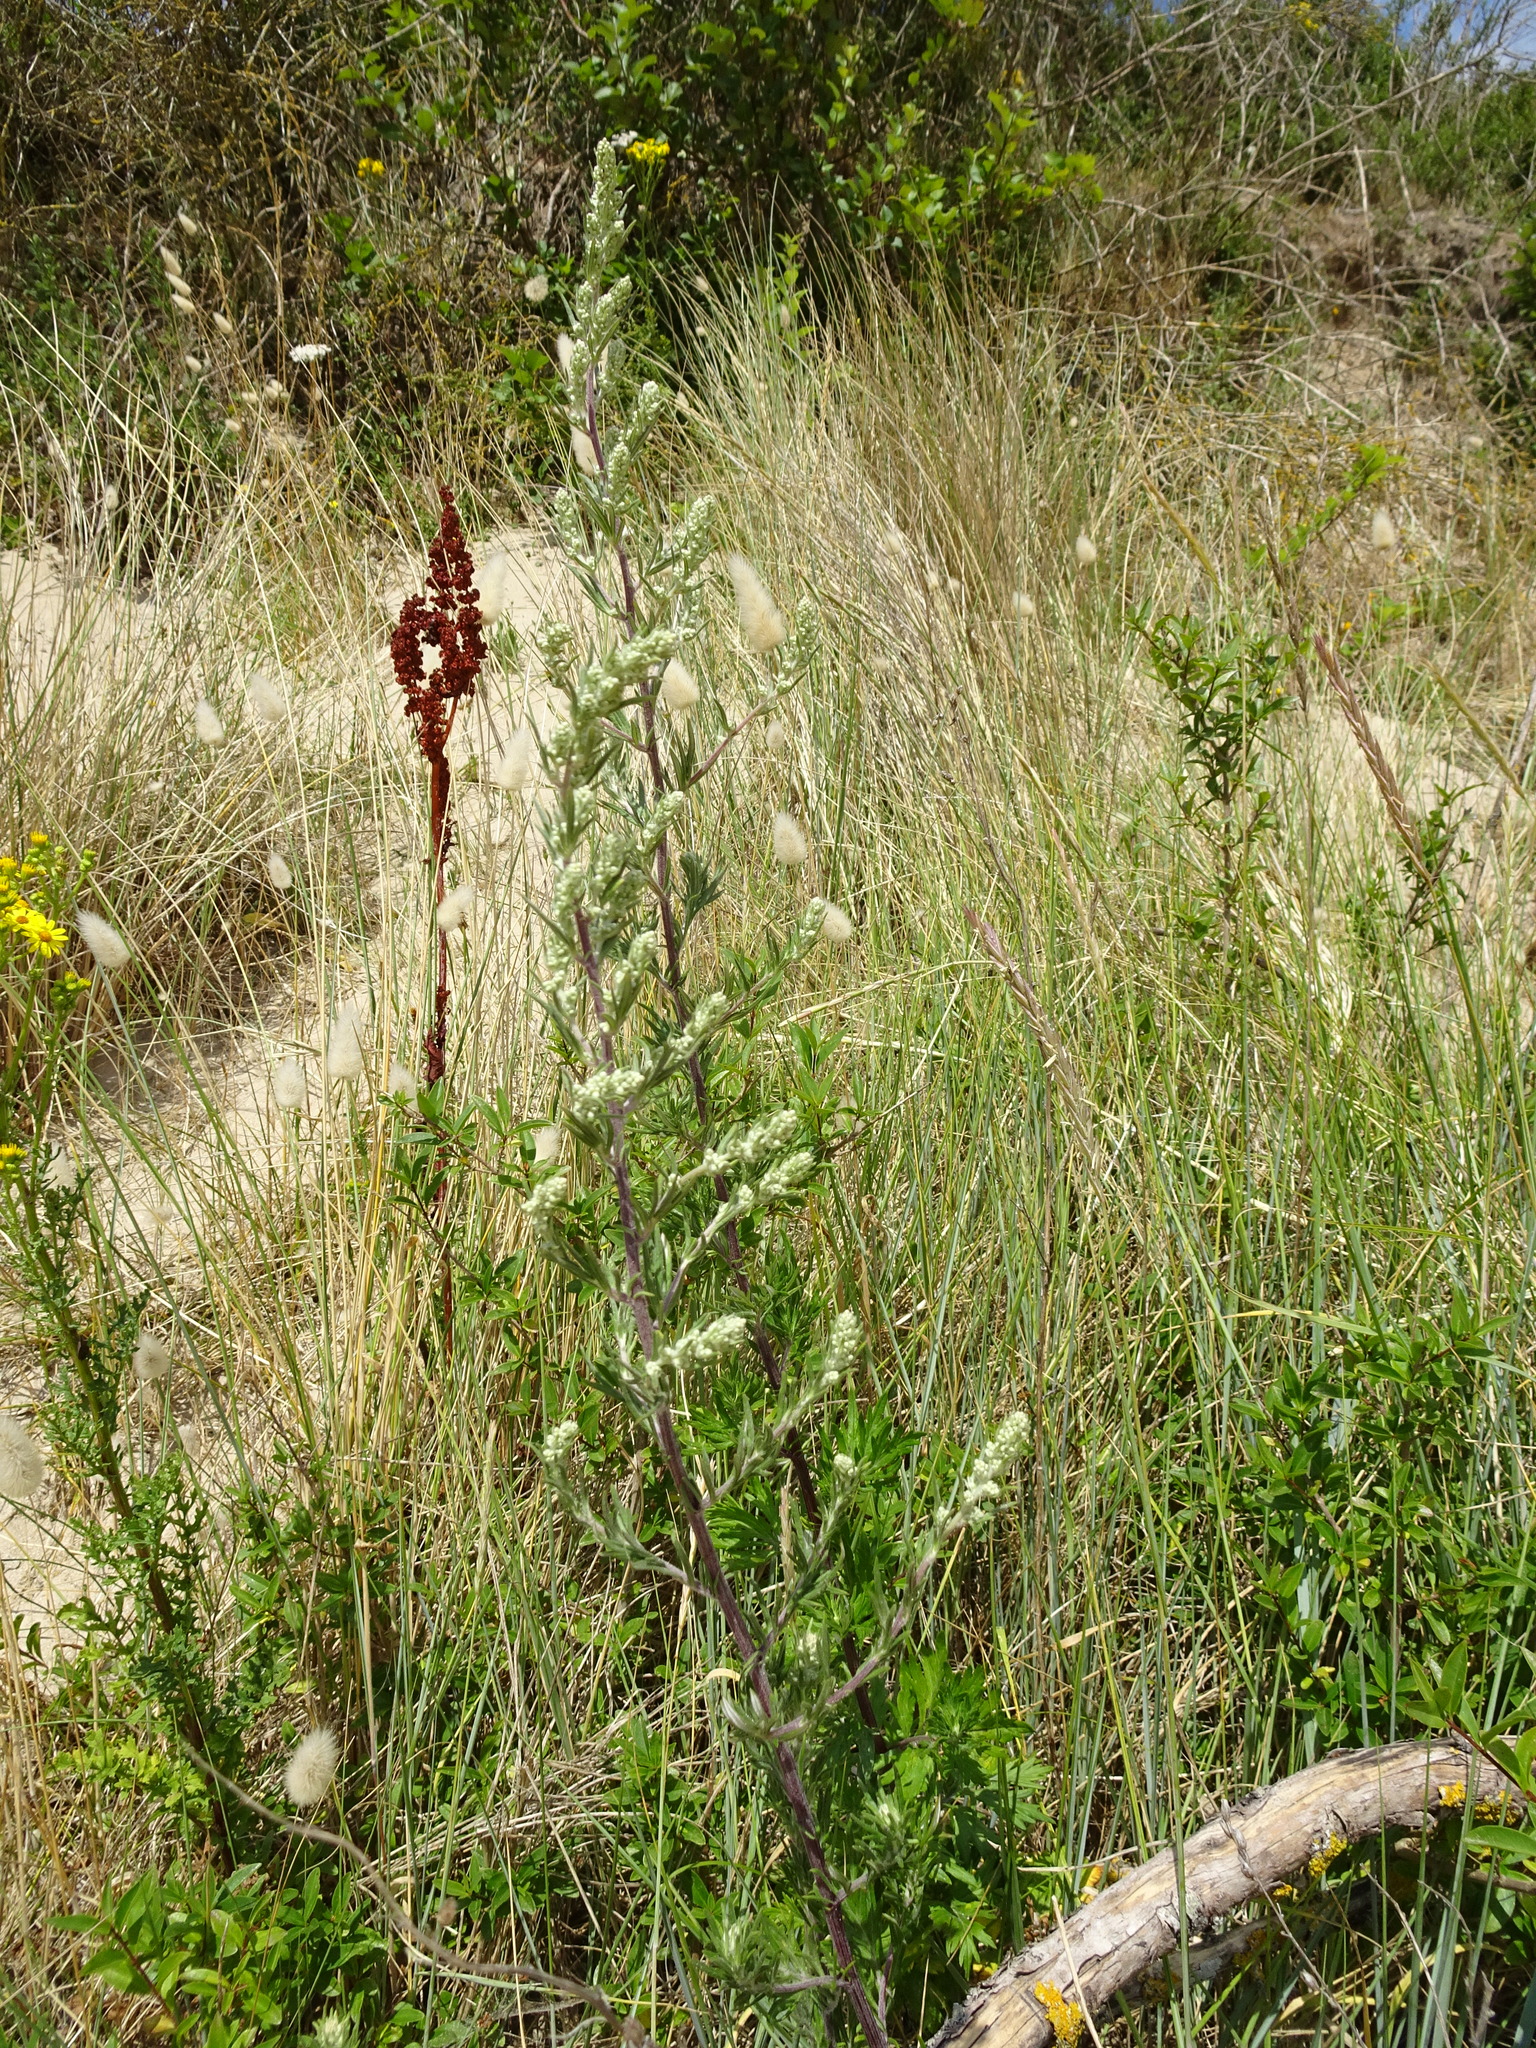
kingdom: Plantae
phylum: Tracheophyta
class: Magnoliopsida
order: Asterales
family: Asteraceae
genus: Artemisia
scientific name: Artemisia vulgaris
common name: Mugwort
